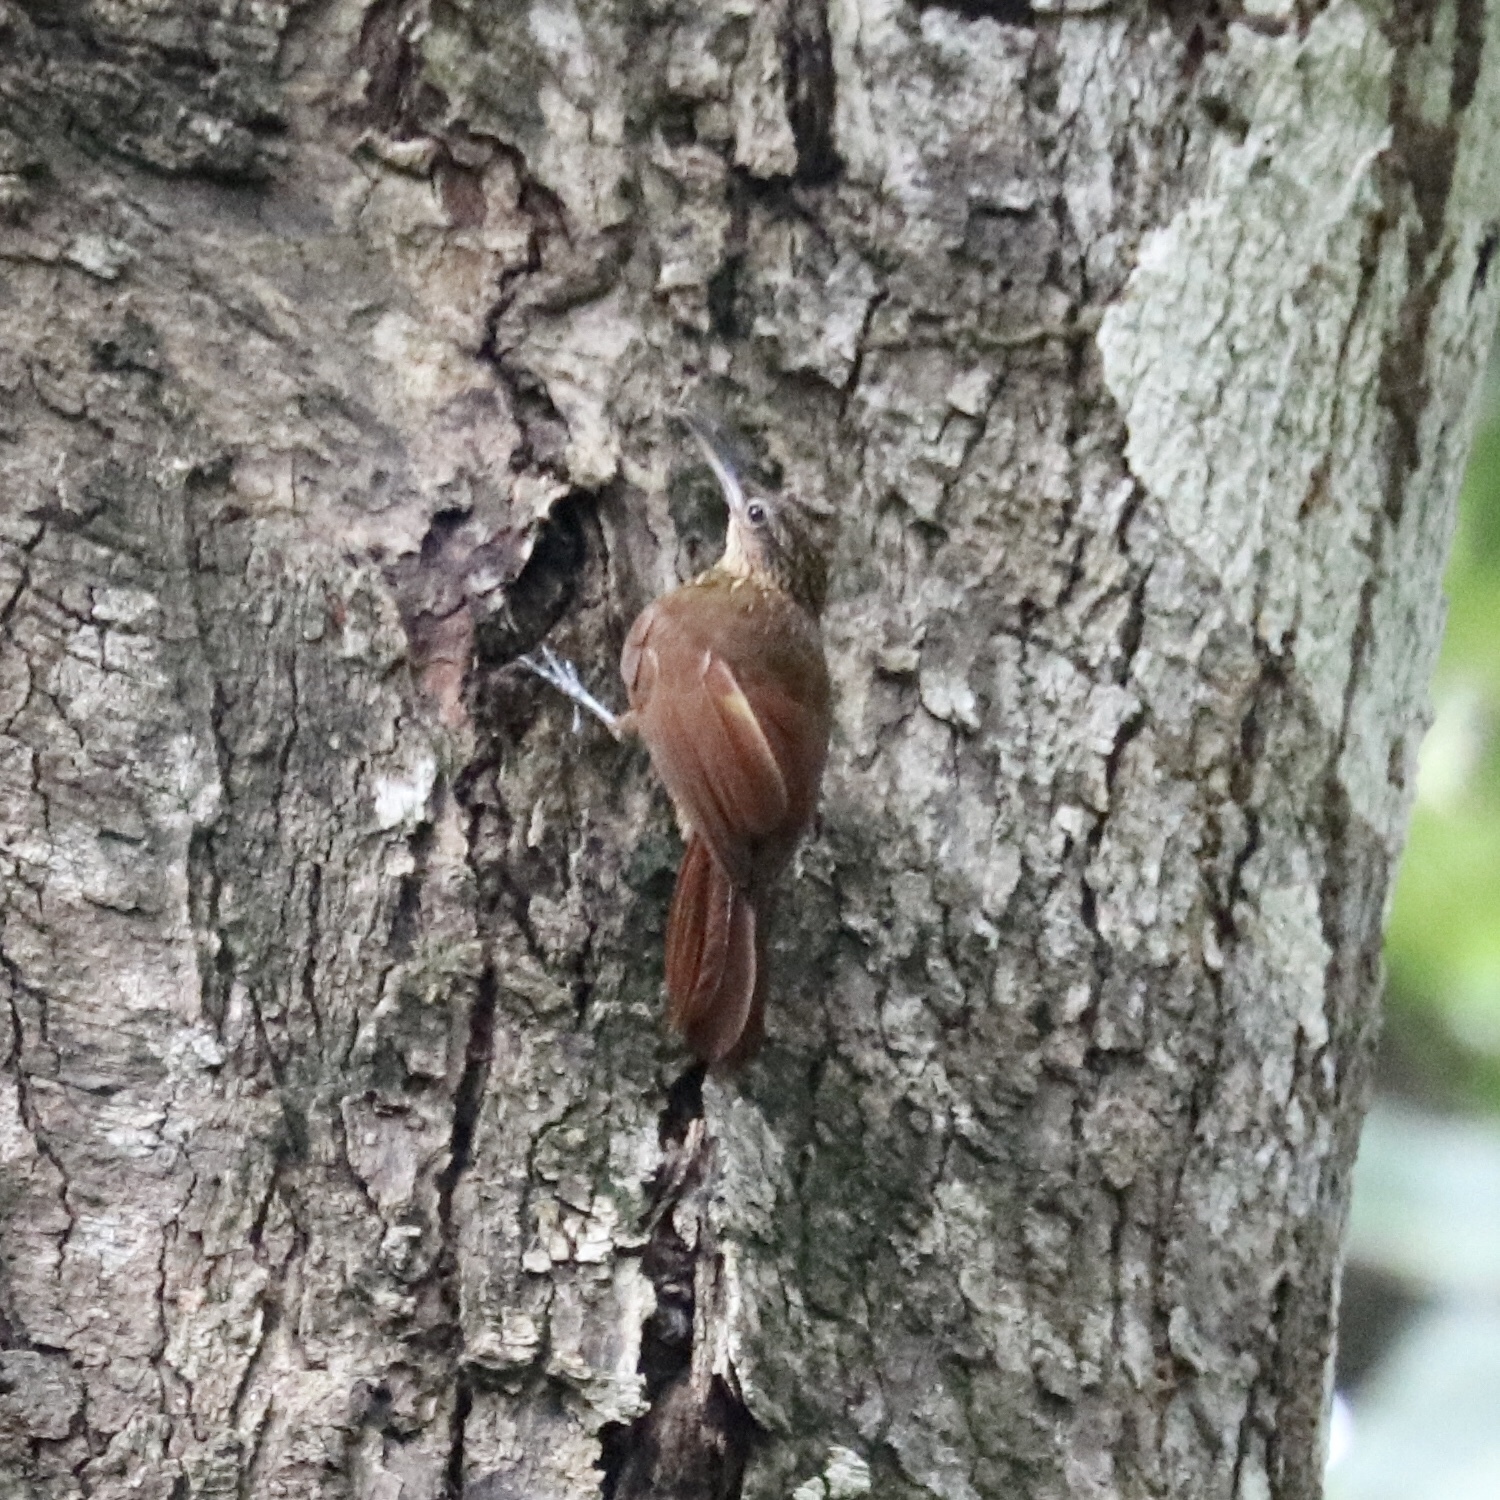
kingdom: Animalia
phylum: Chordata
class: Aves
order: Passeriformes
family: Furnariidae
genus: Xiphorhynchus
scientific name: Xiphorhynchus susurrans
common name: Cocoa woodcreeper
